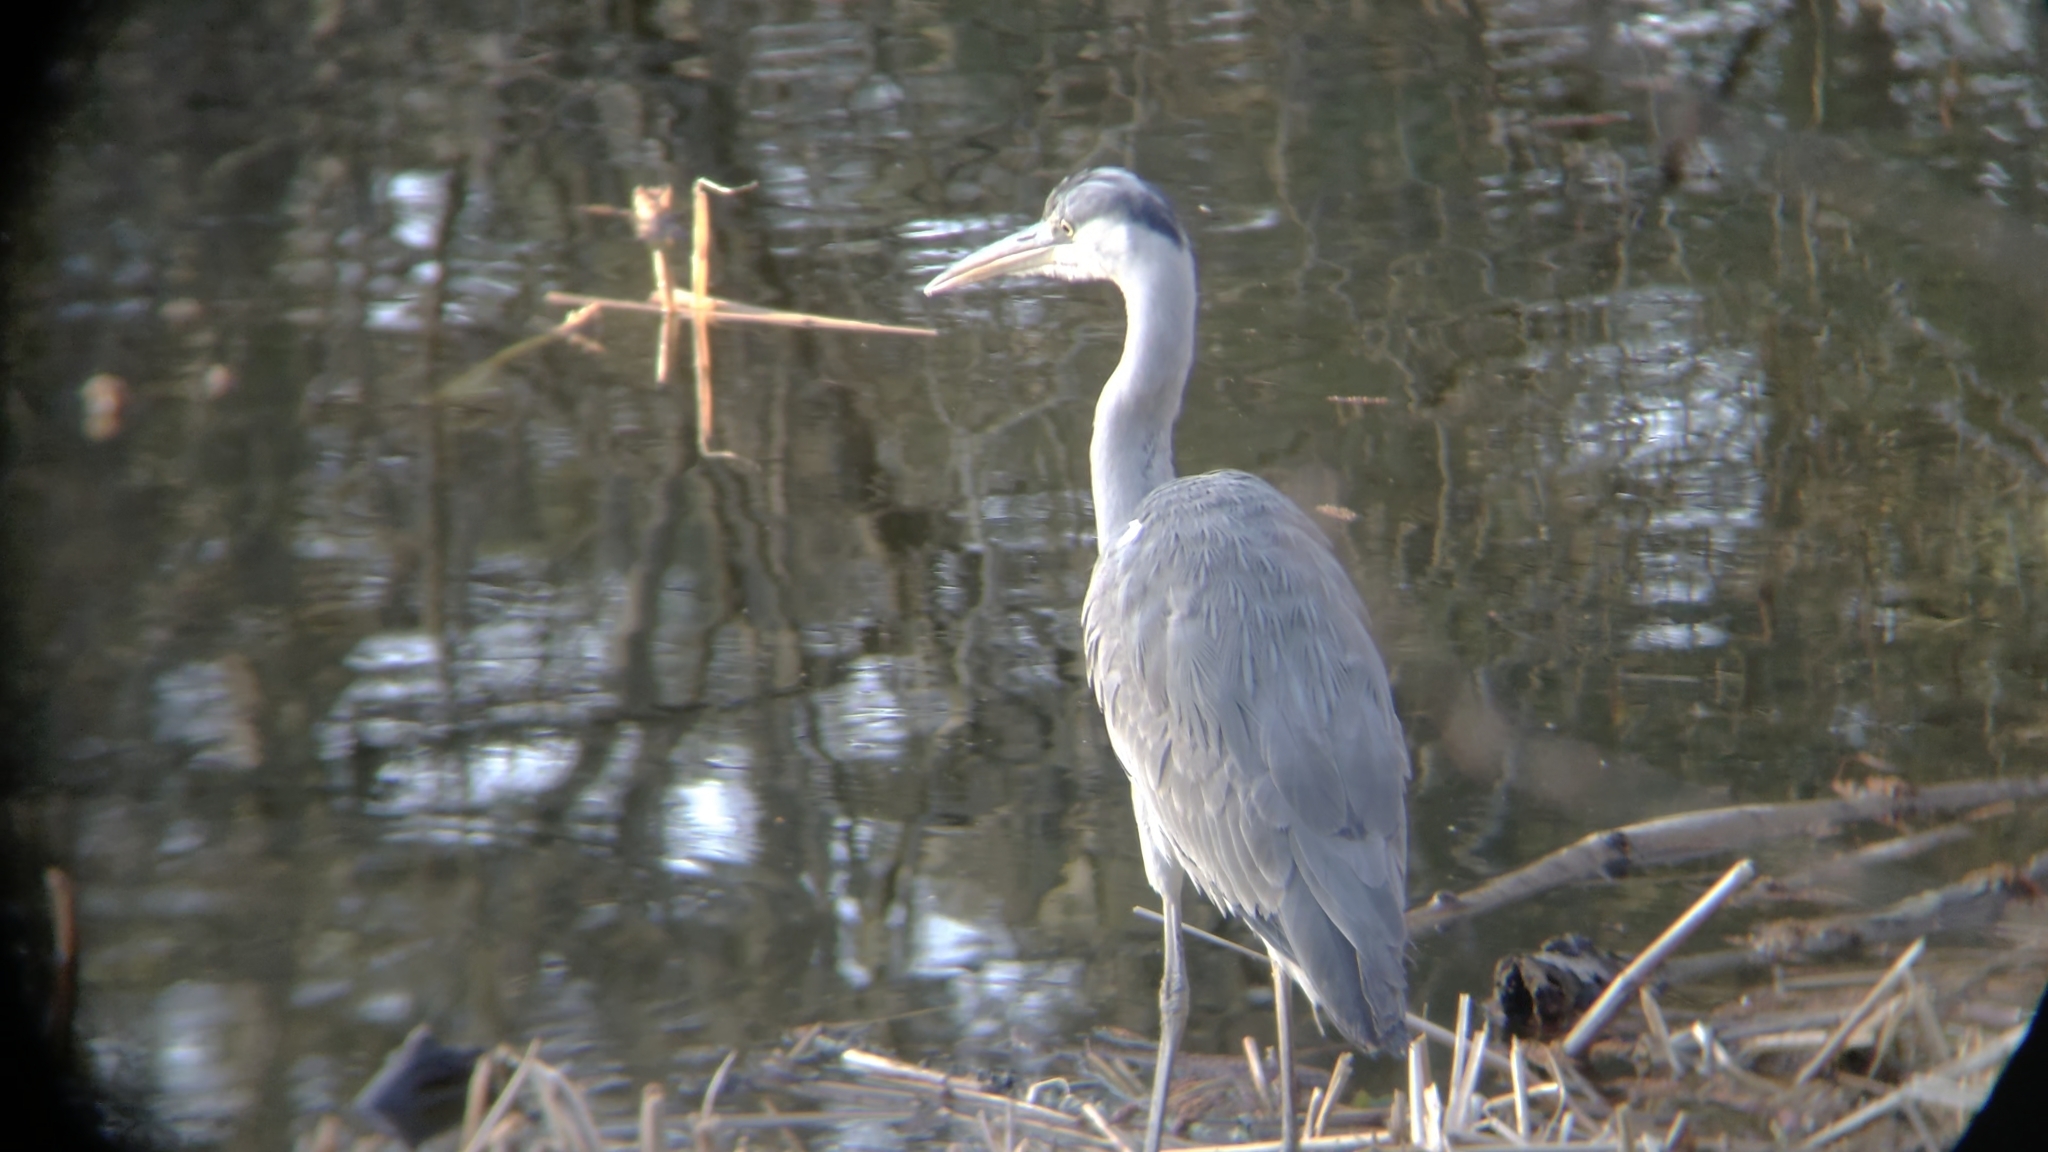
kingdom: Animalia
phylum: Chordata
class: Aves
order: Pelecaniformes
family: Ardeidae
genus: Ardea
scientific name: Ardea cinerea
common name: Grey heron
